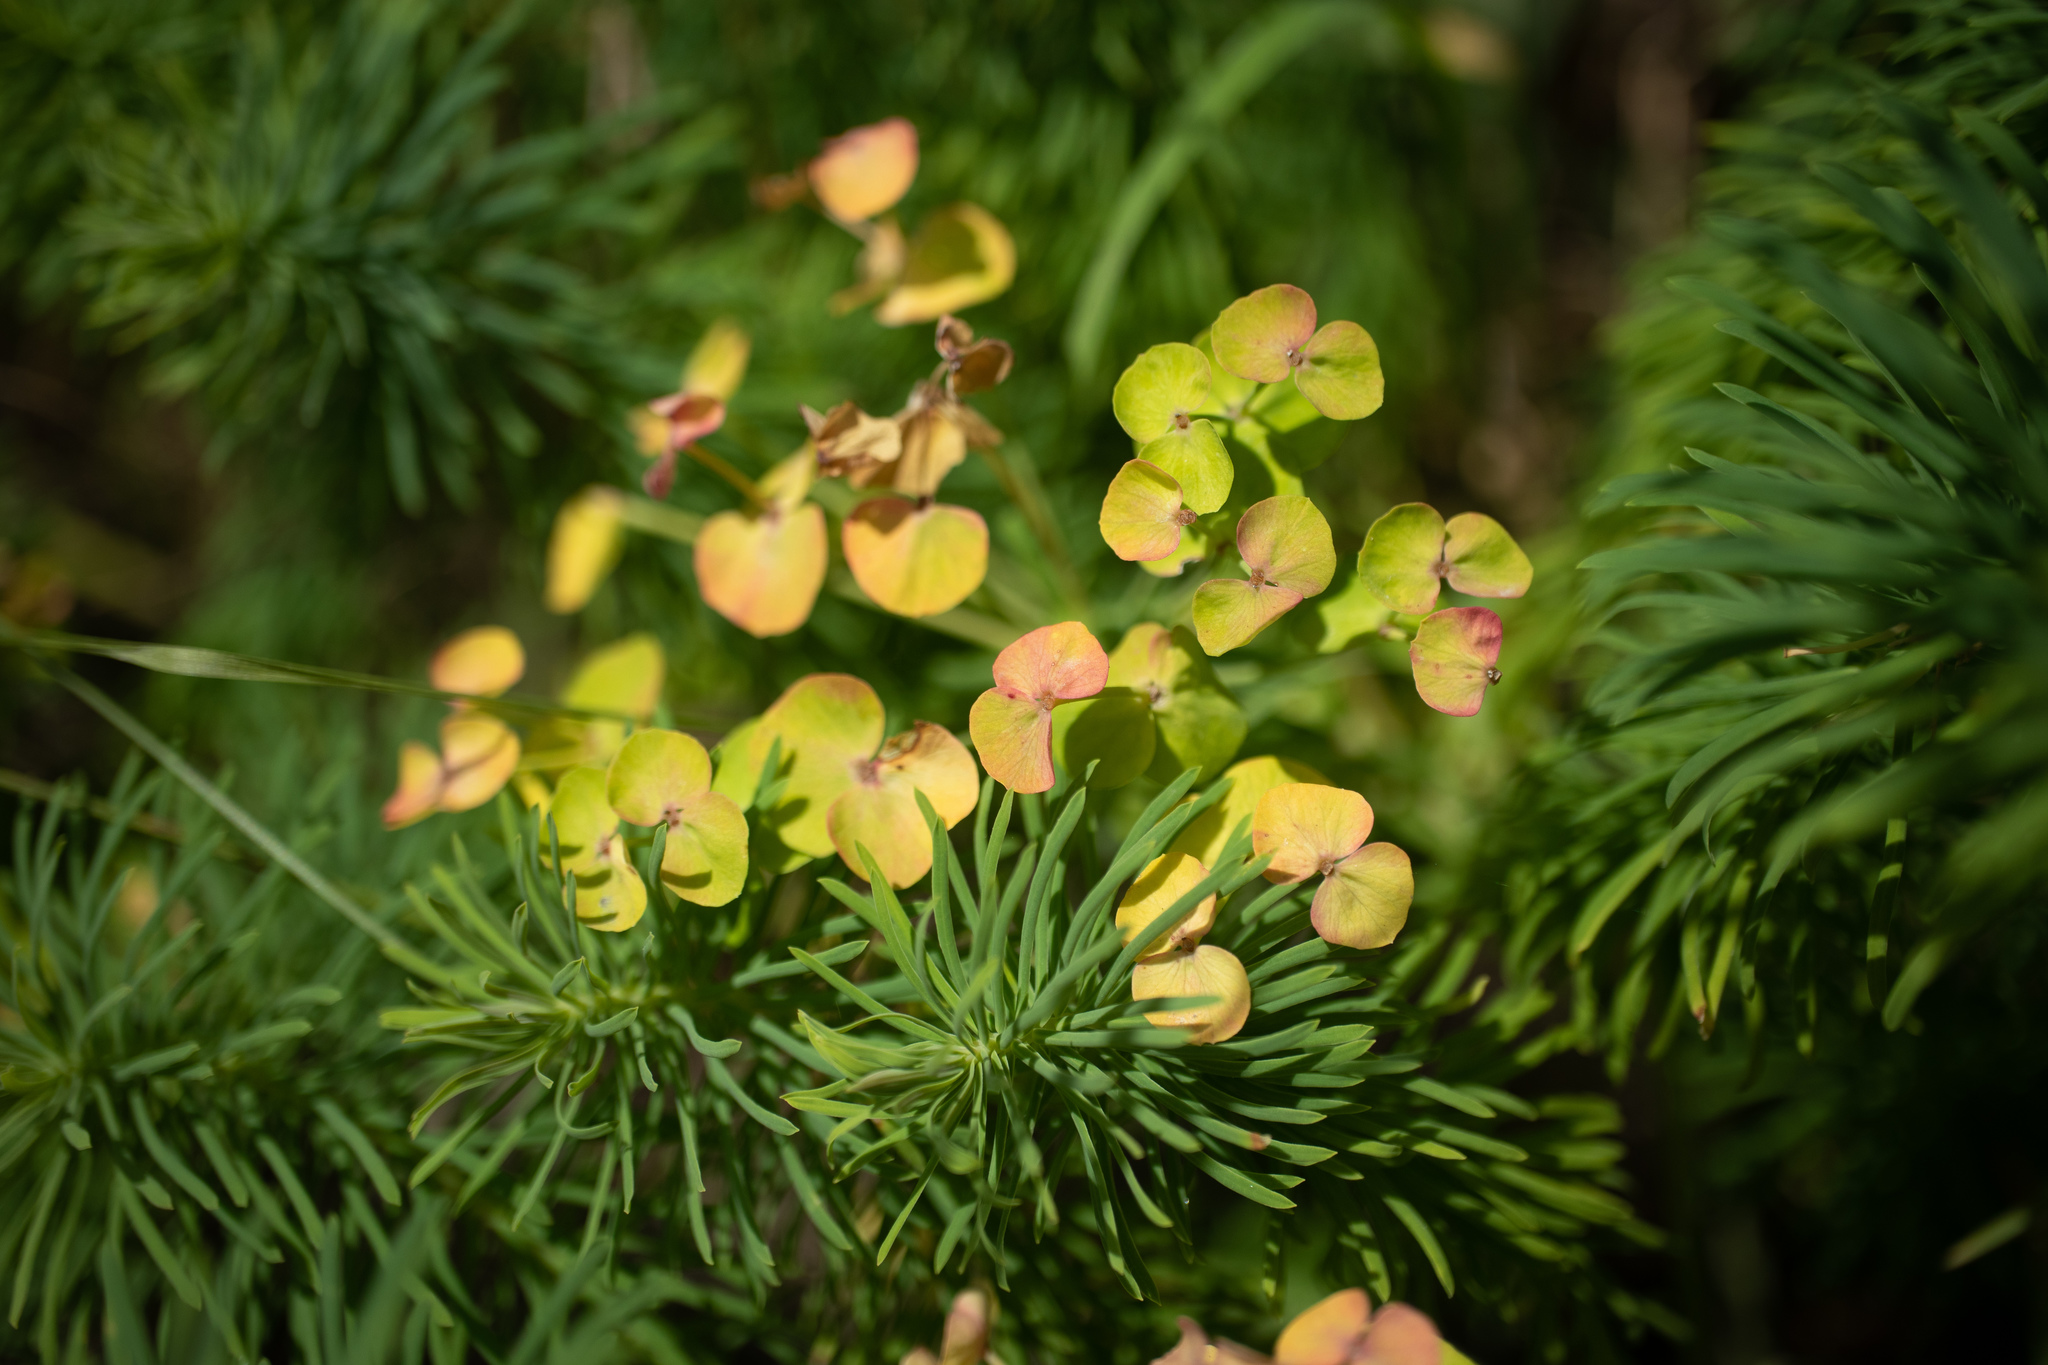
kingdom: Plantae
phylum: Tracheophyta
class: Magnoliopsida
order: Malpighiales
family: Euphorbiaceae
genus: Euphorbia
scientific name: Euphorbia cyparissias
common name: Cypress spurge
